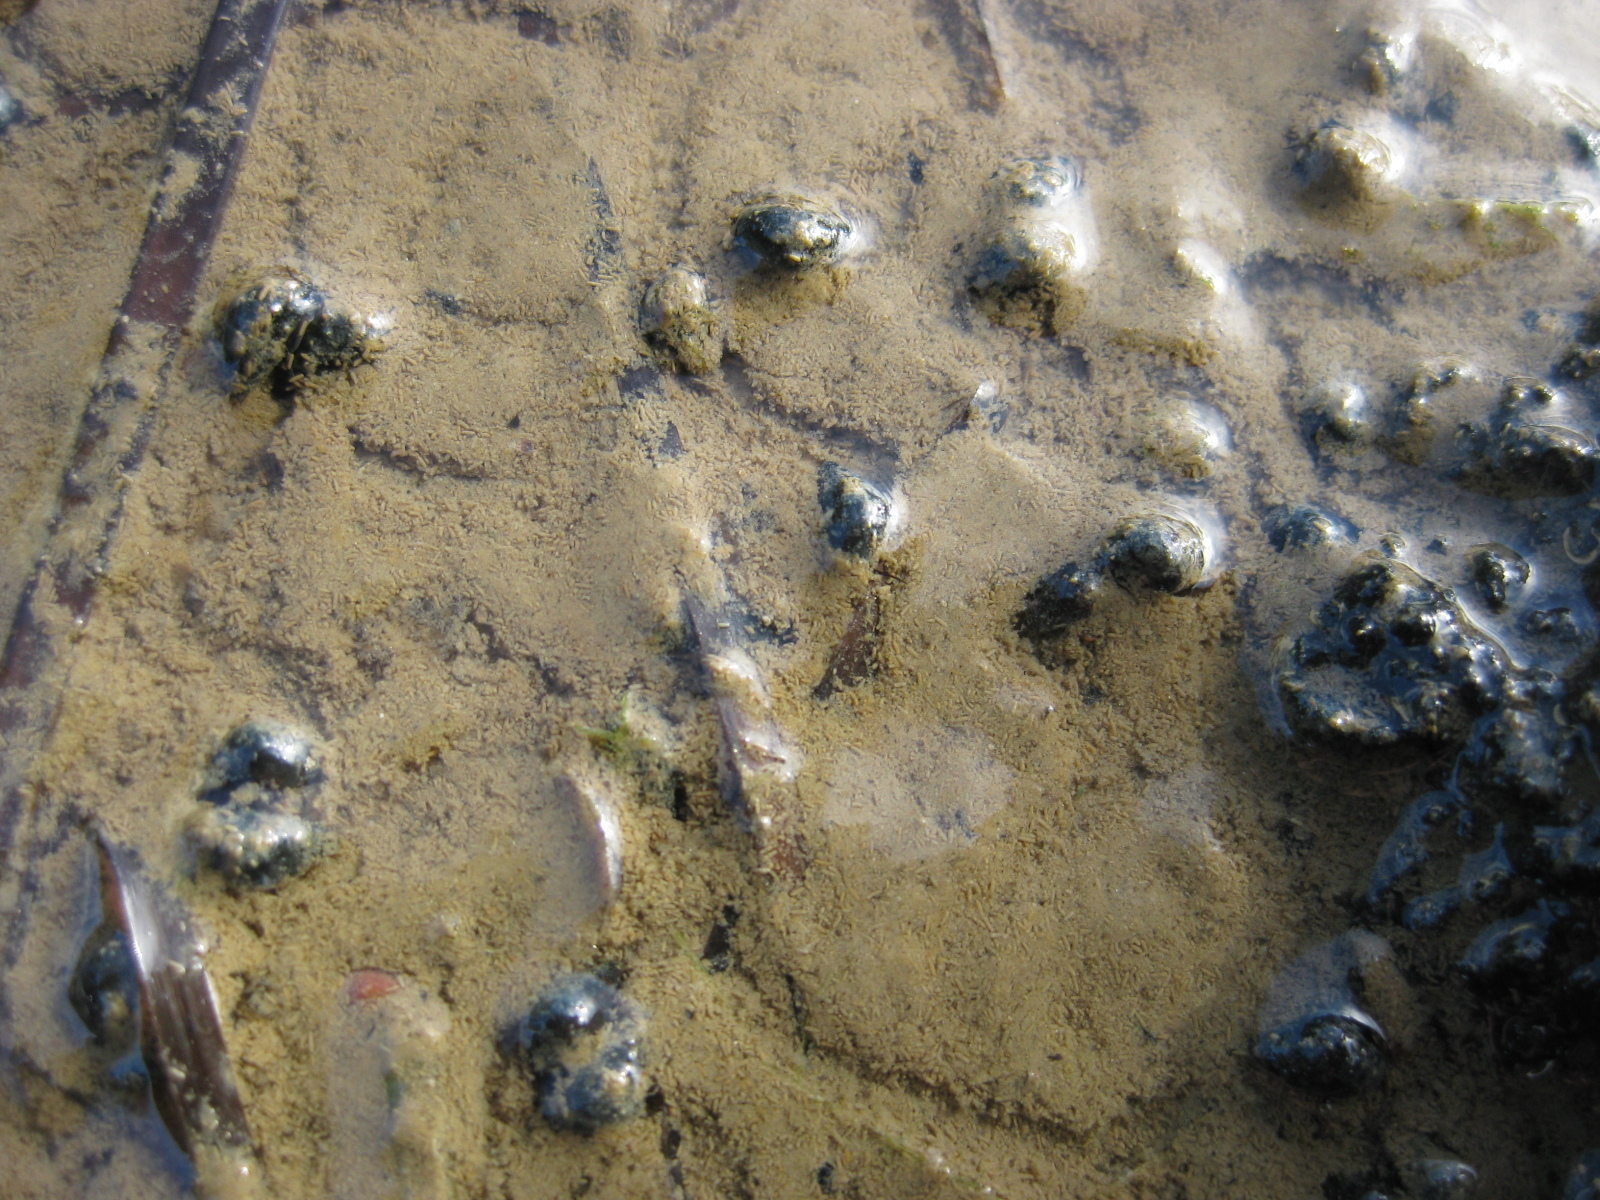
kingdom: Animalia
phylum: Mollusca
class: Gastropoda
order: Littorinimorpha
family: Tateidae
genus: Potamopyrgus
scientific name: Potamopyrgus estuarinus
